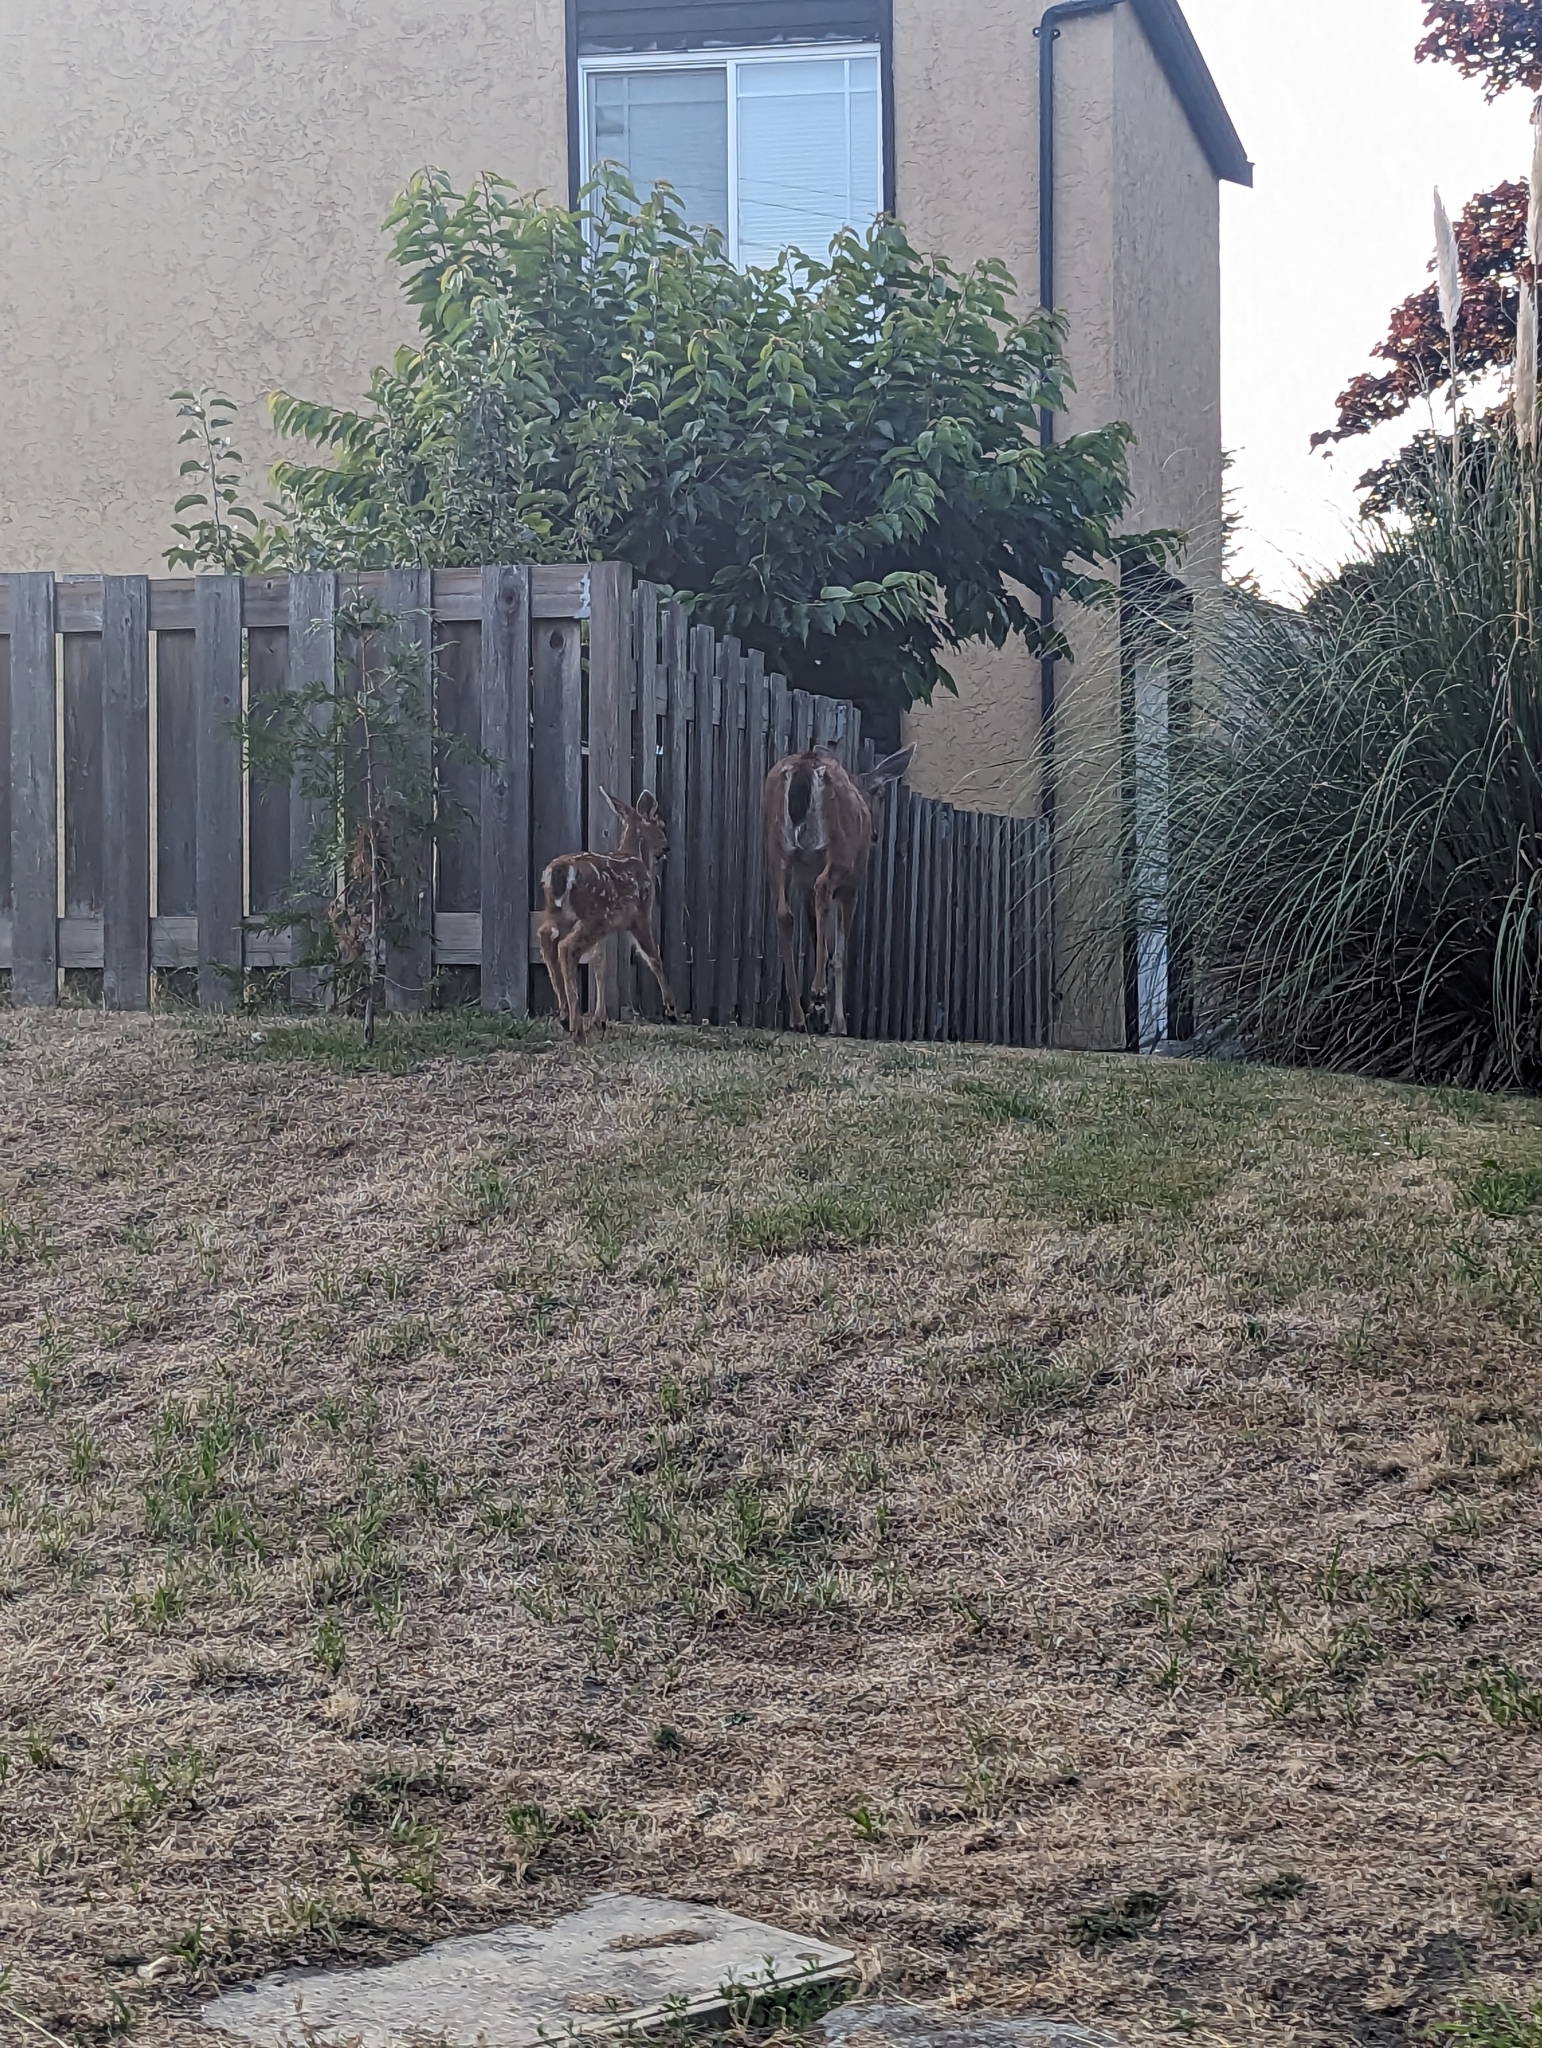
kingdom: Animalia
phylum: Chordata
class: Mammalia
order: Artiodactyla
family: Cervidae
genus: Odocoileus
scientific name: Odocoileus hemionus
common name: Mule deer
